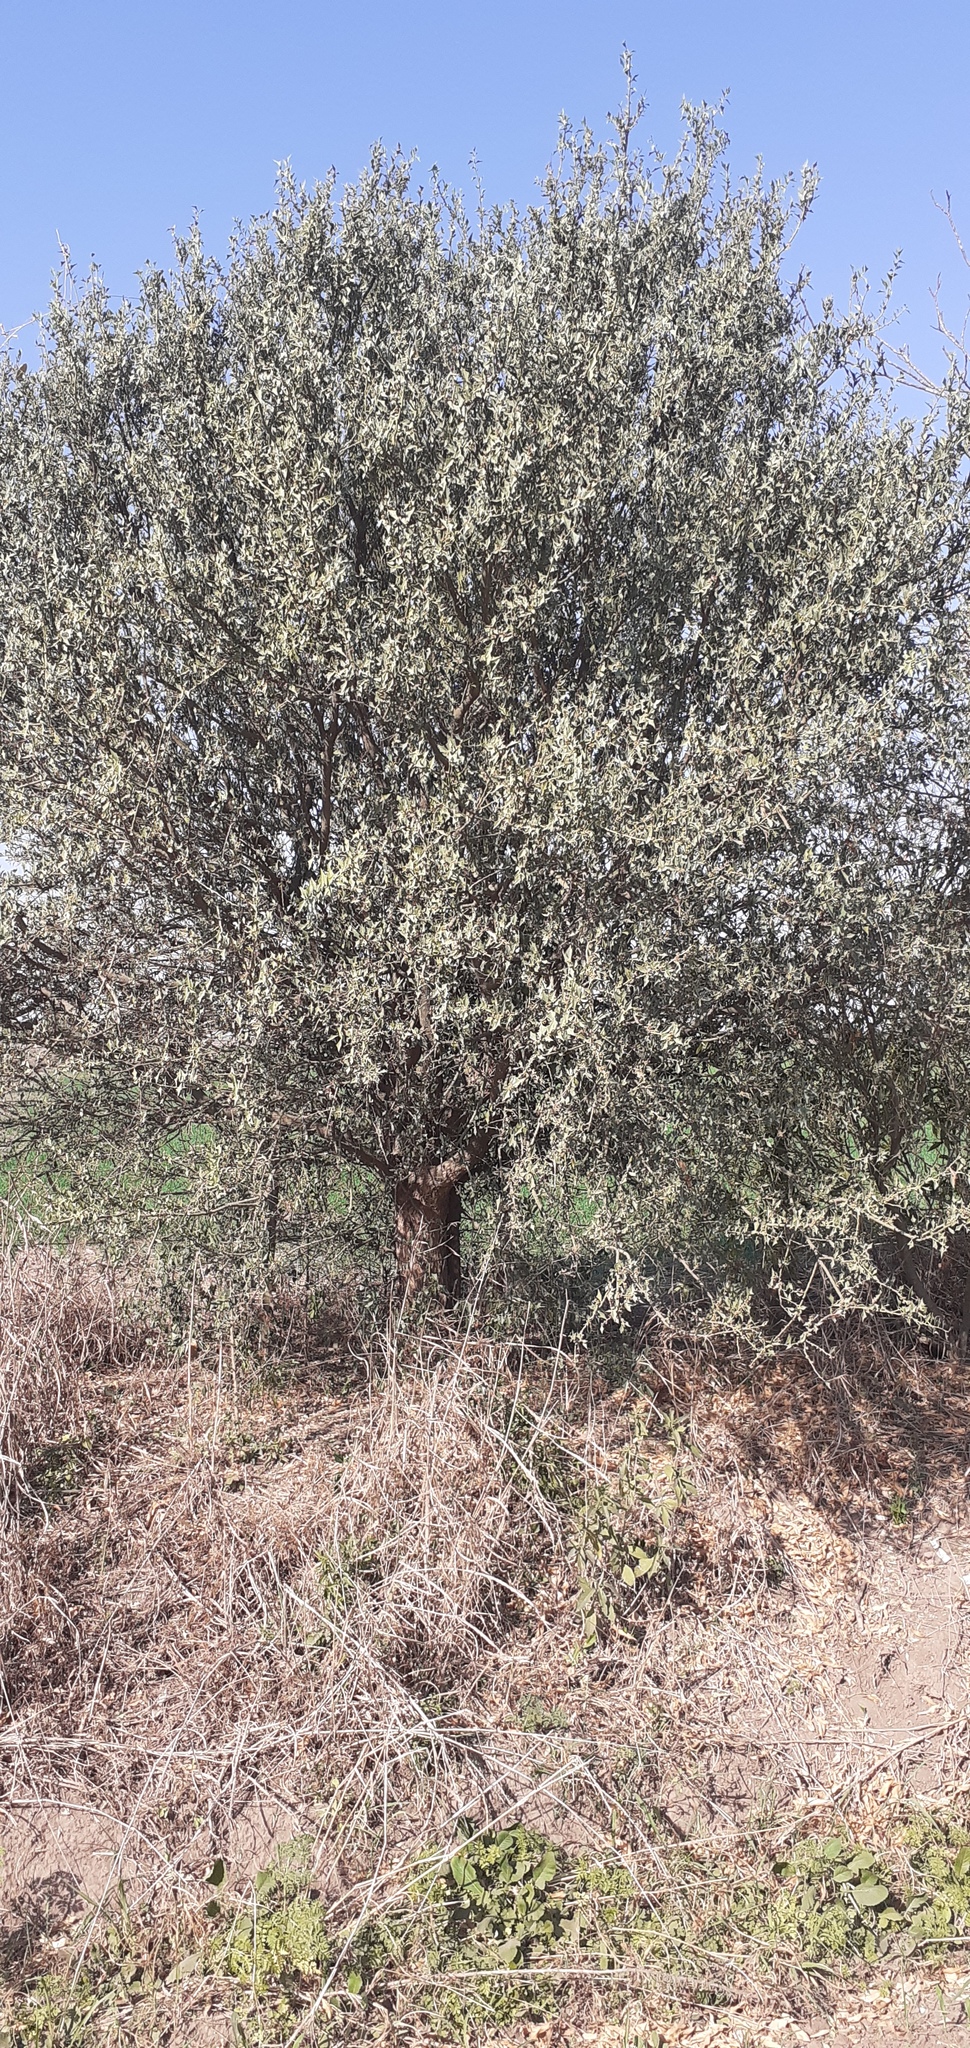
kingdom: Plantae
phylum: Tracheophyta
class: Magnoliopsida
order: Santalales
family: Cervantesiaceae
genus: Jodina
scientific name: Jodina rhombifolia
